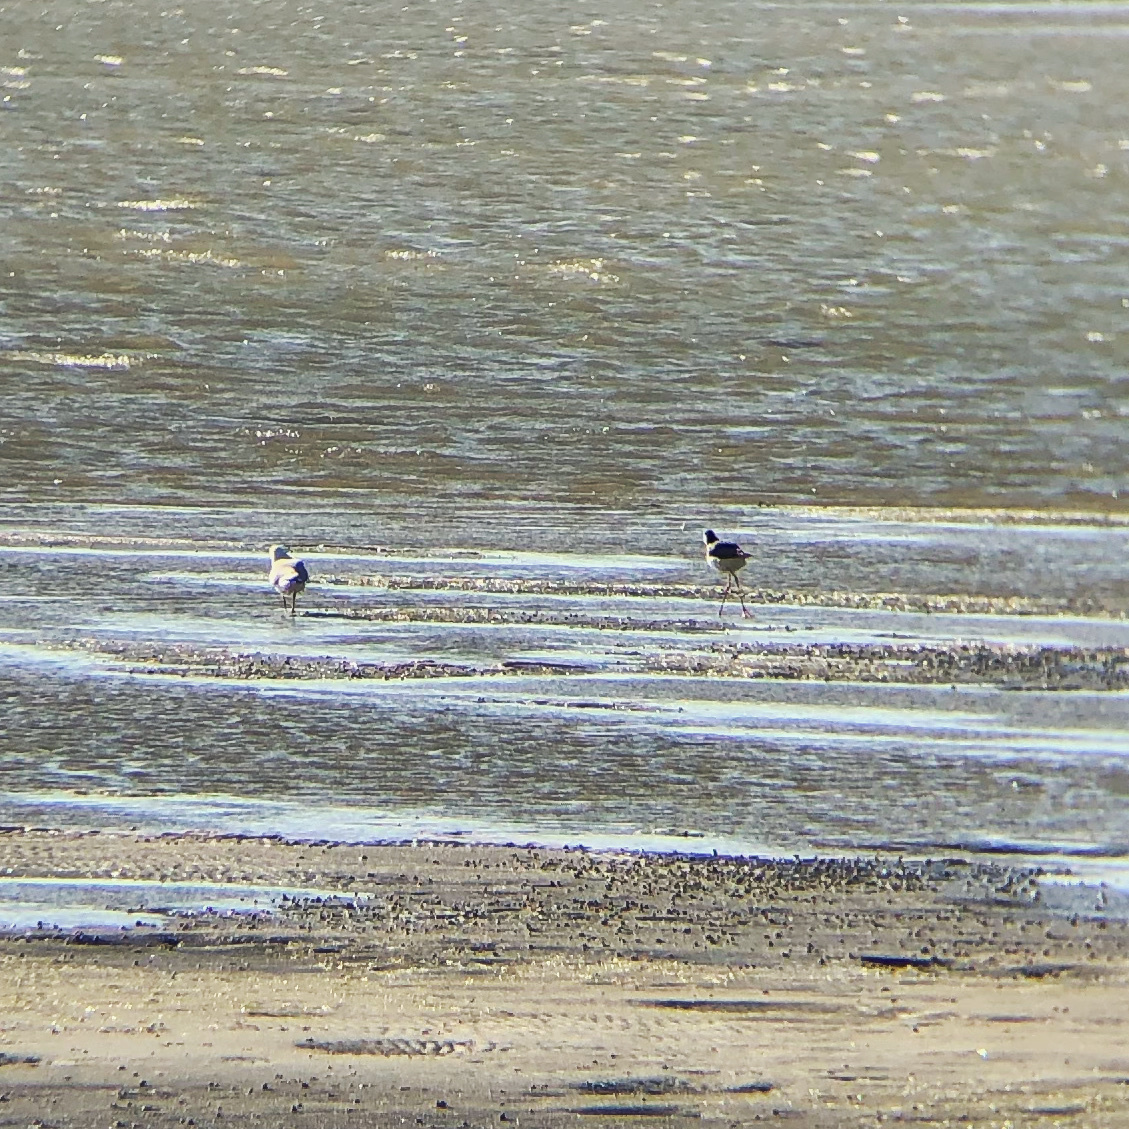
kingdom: Animalia
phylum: Chordata
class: Aves
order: Charadriiformes
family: Recurvirostridae
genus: Himantopus
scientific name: Himantopus leucocephalus
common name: White-headed stilt
